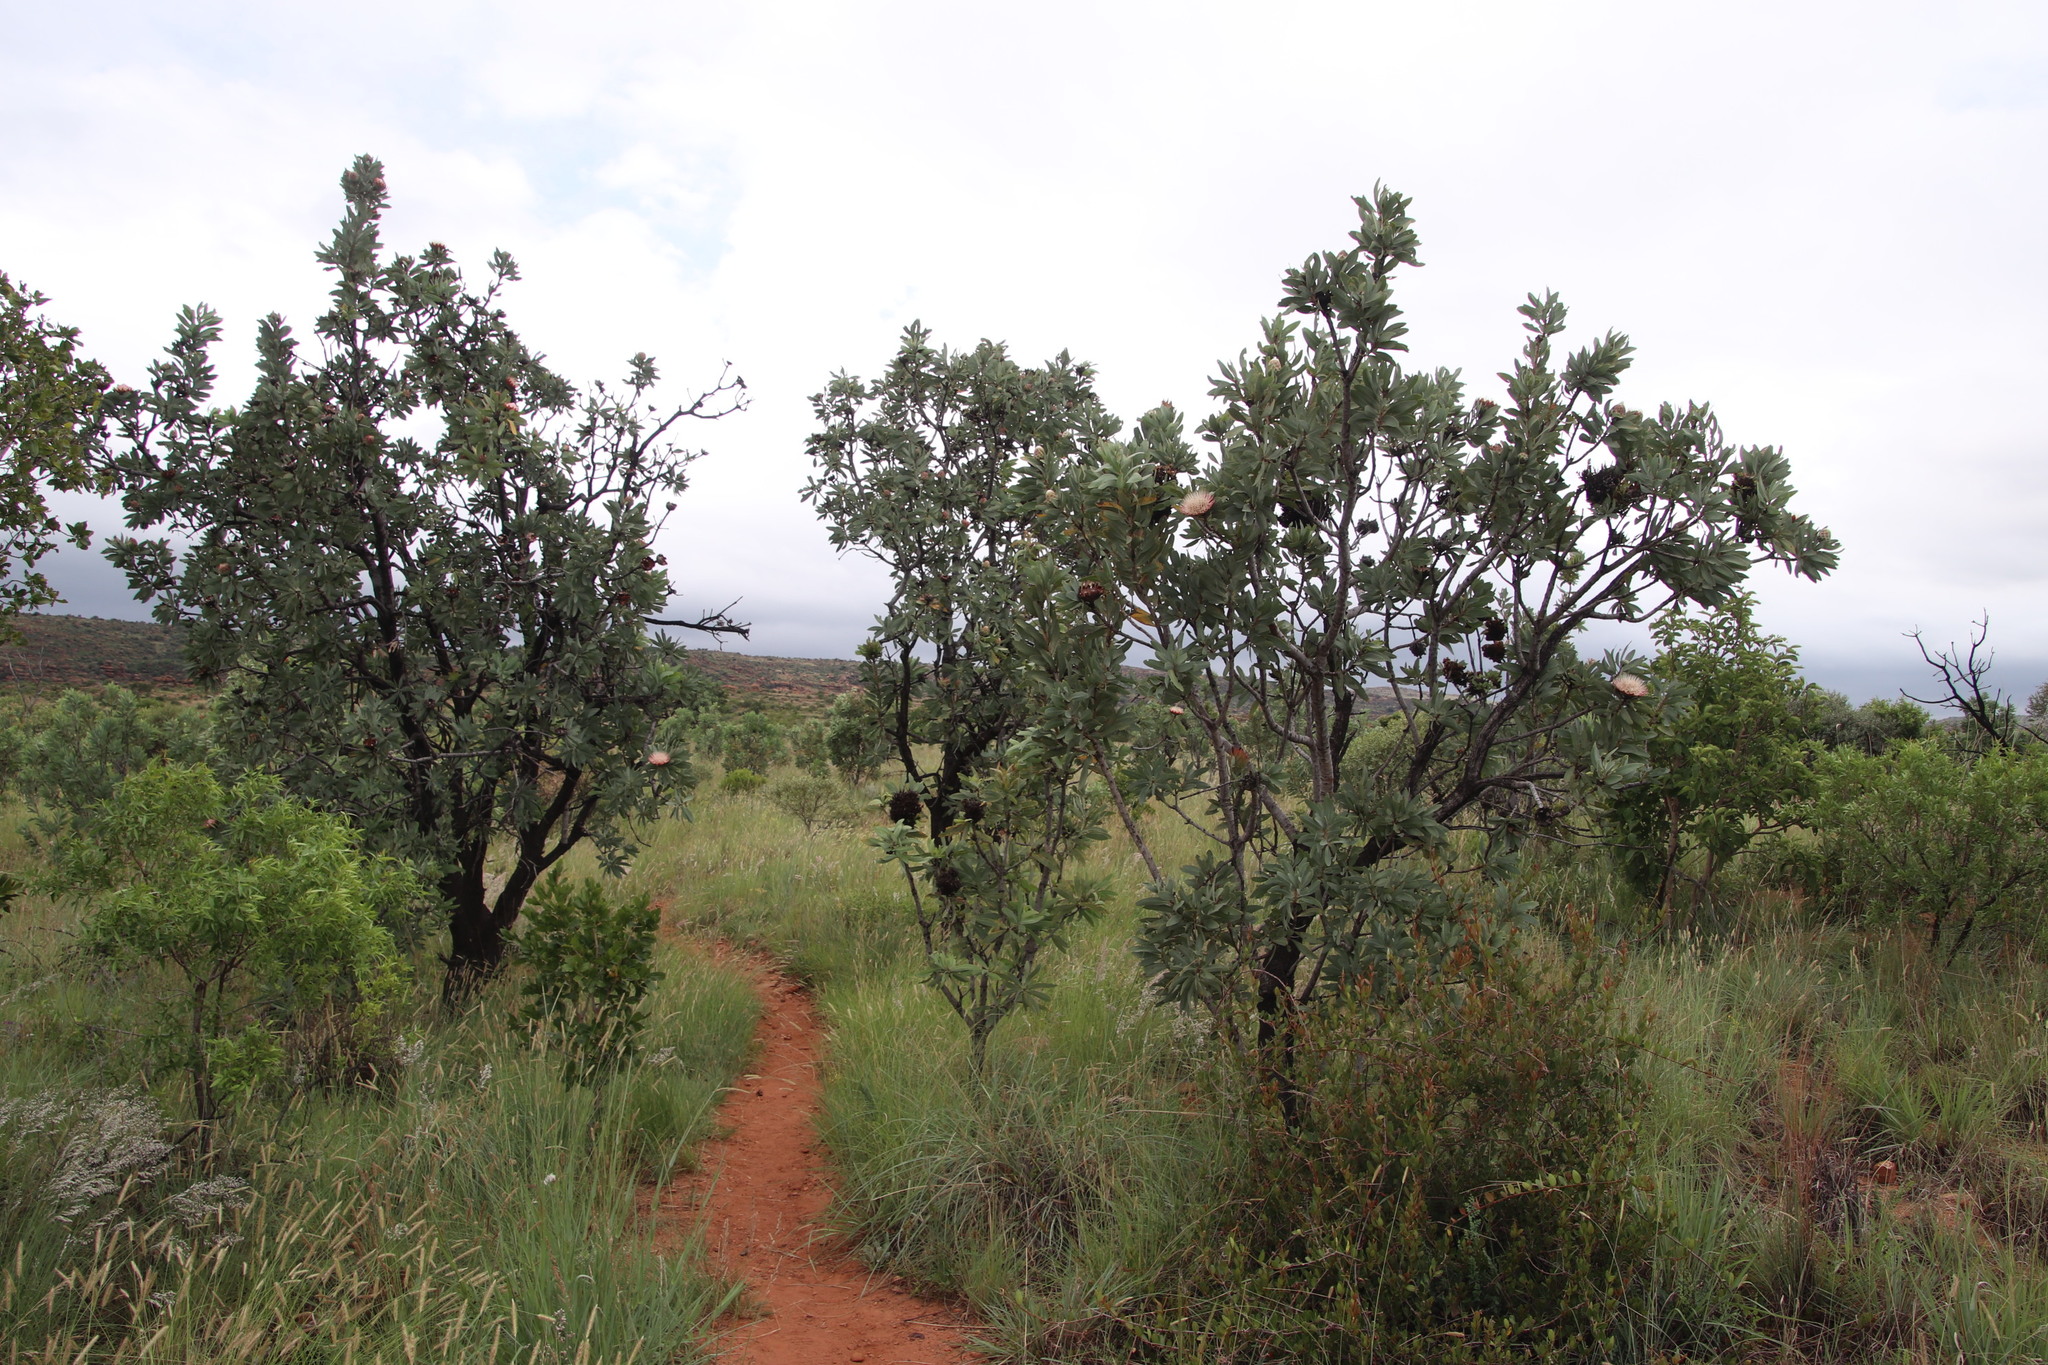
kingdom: Bacteria
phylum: Firmicutes
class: Bacilli
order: Acholeplasmatales
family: Acholeplasmataceae
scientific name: Acholeplasmataceae
